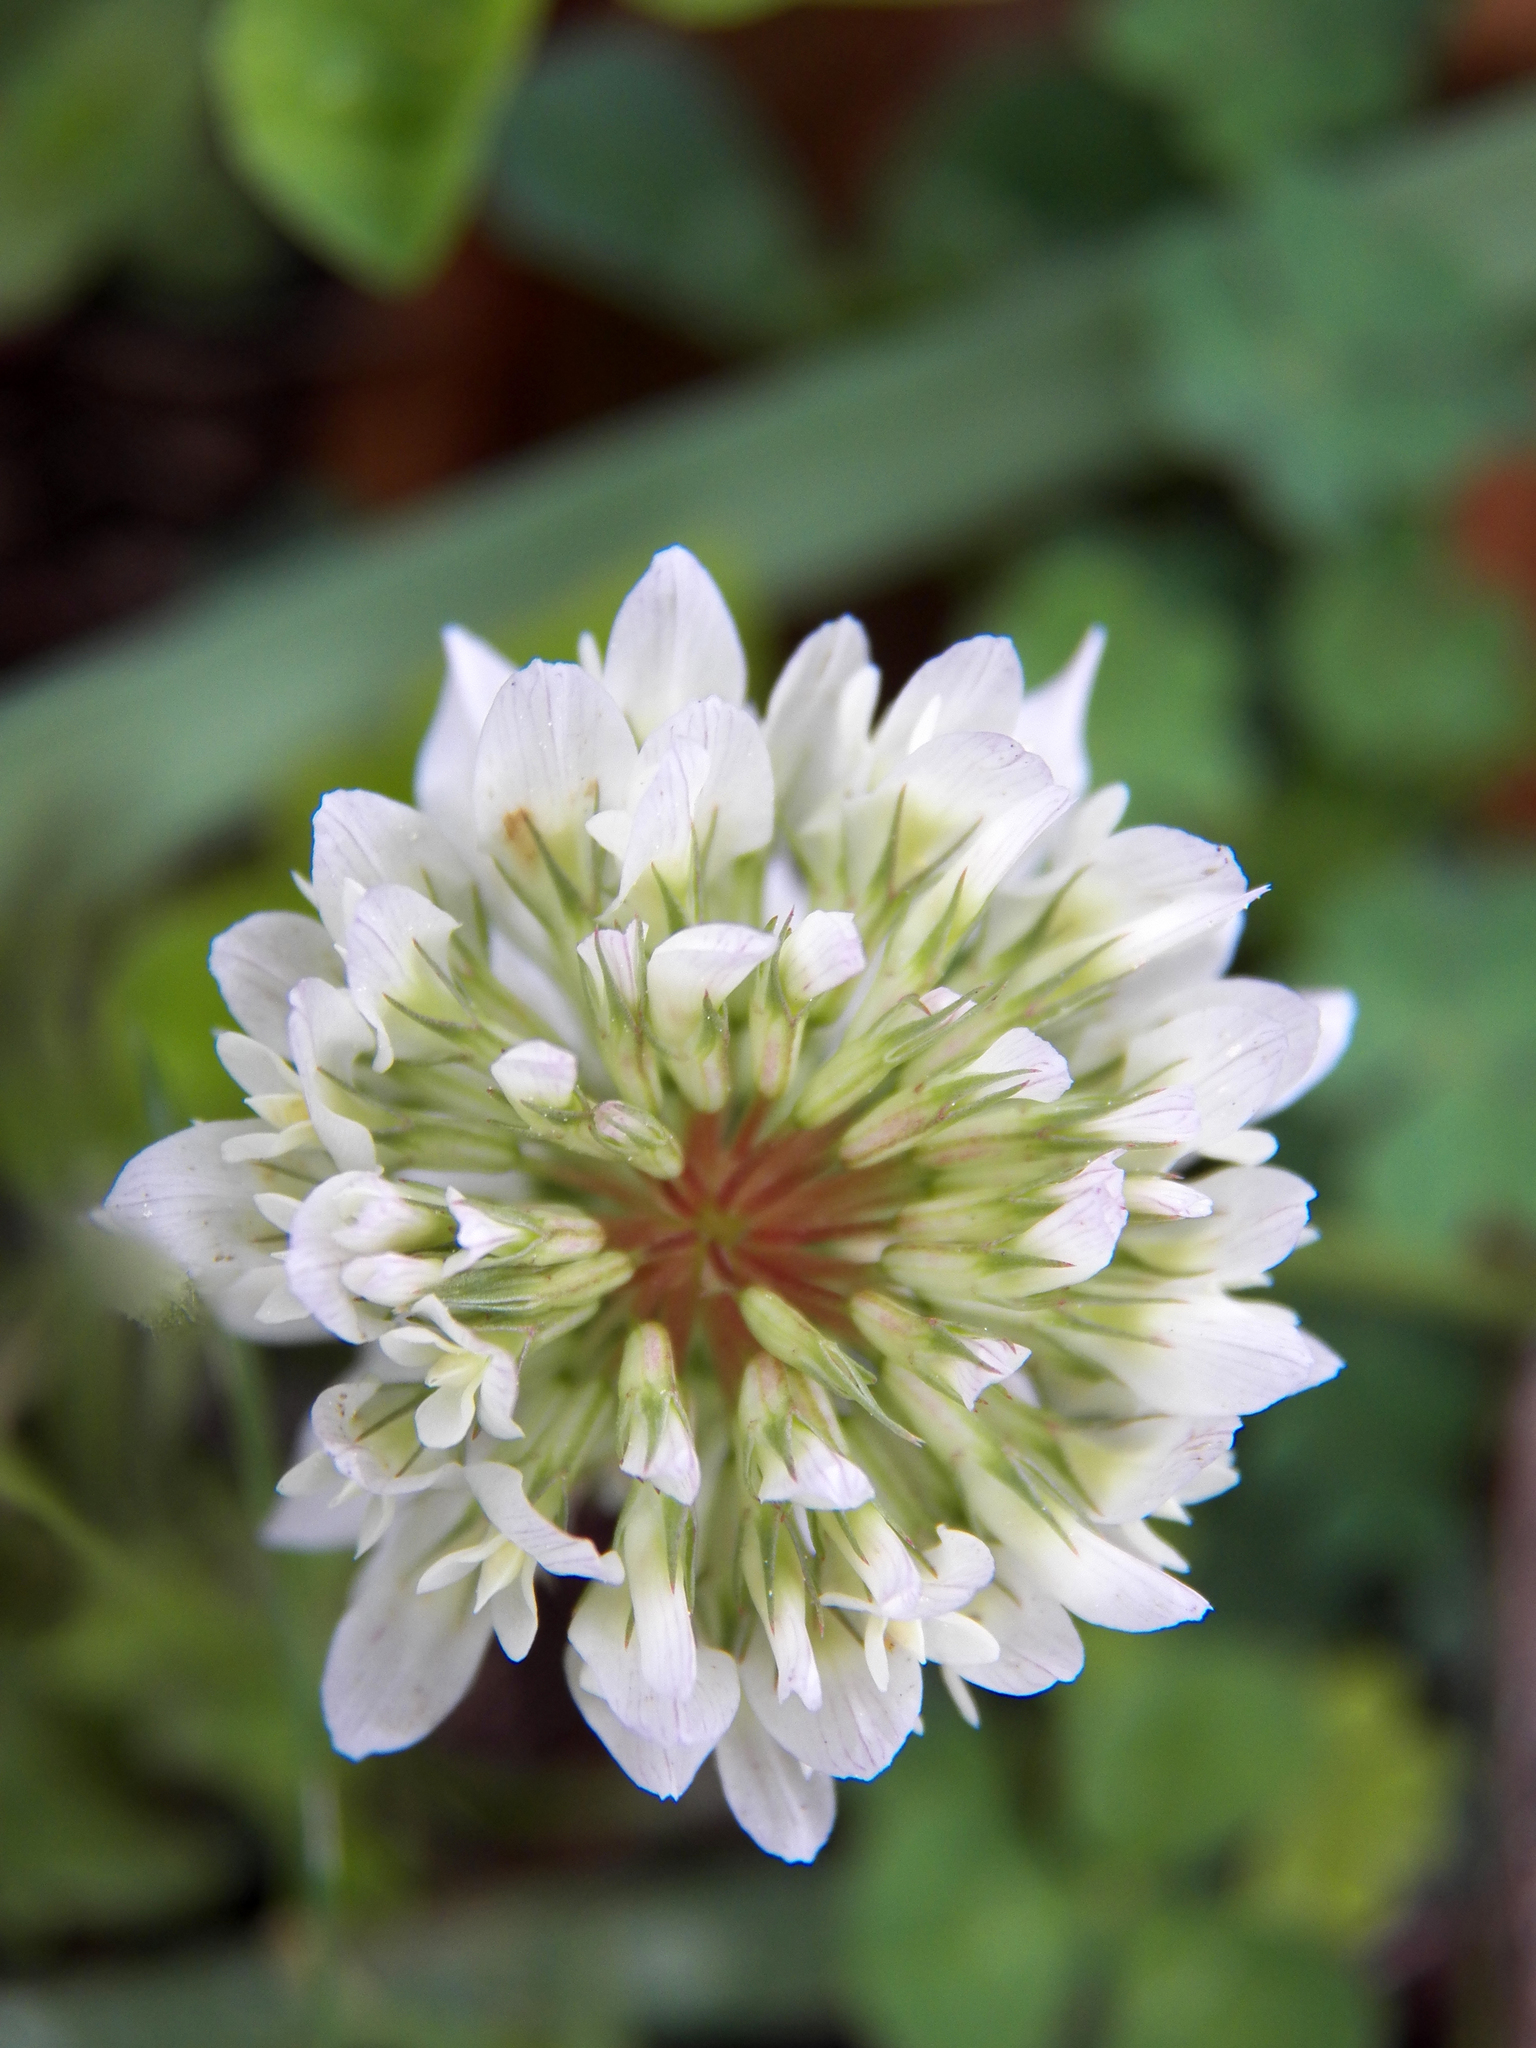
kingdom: Plantae
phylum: Tracheophyta
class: Magnoliopsida
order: Fabales
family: Fabaceae
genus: Trifolium
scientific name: Trifolium repens
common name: White clover
